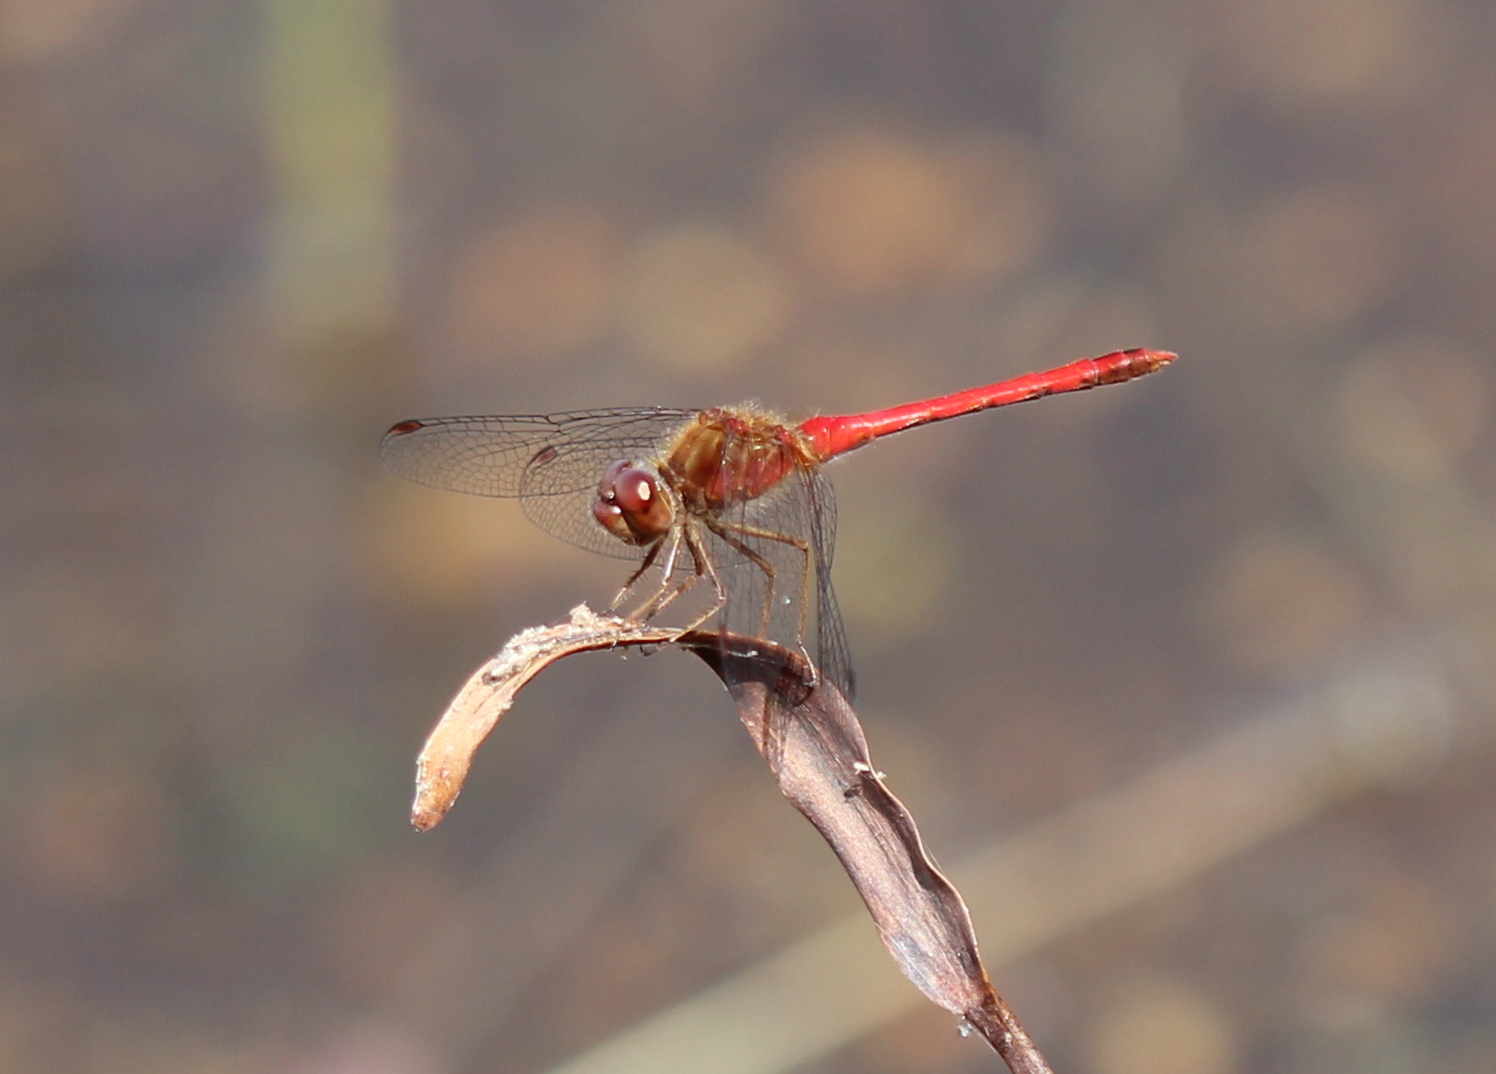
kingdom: Animalia
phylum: Arthropoda
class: Insecta
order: Odonata
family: Libellulidae
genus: Sympetrum
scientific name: Sympetrum vicinum
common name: Autumn meadowhawk
